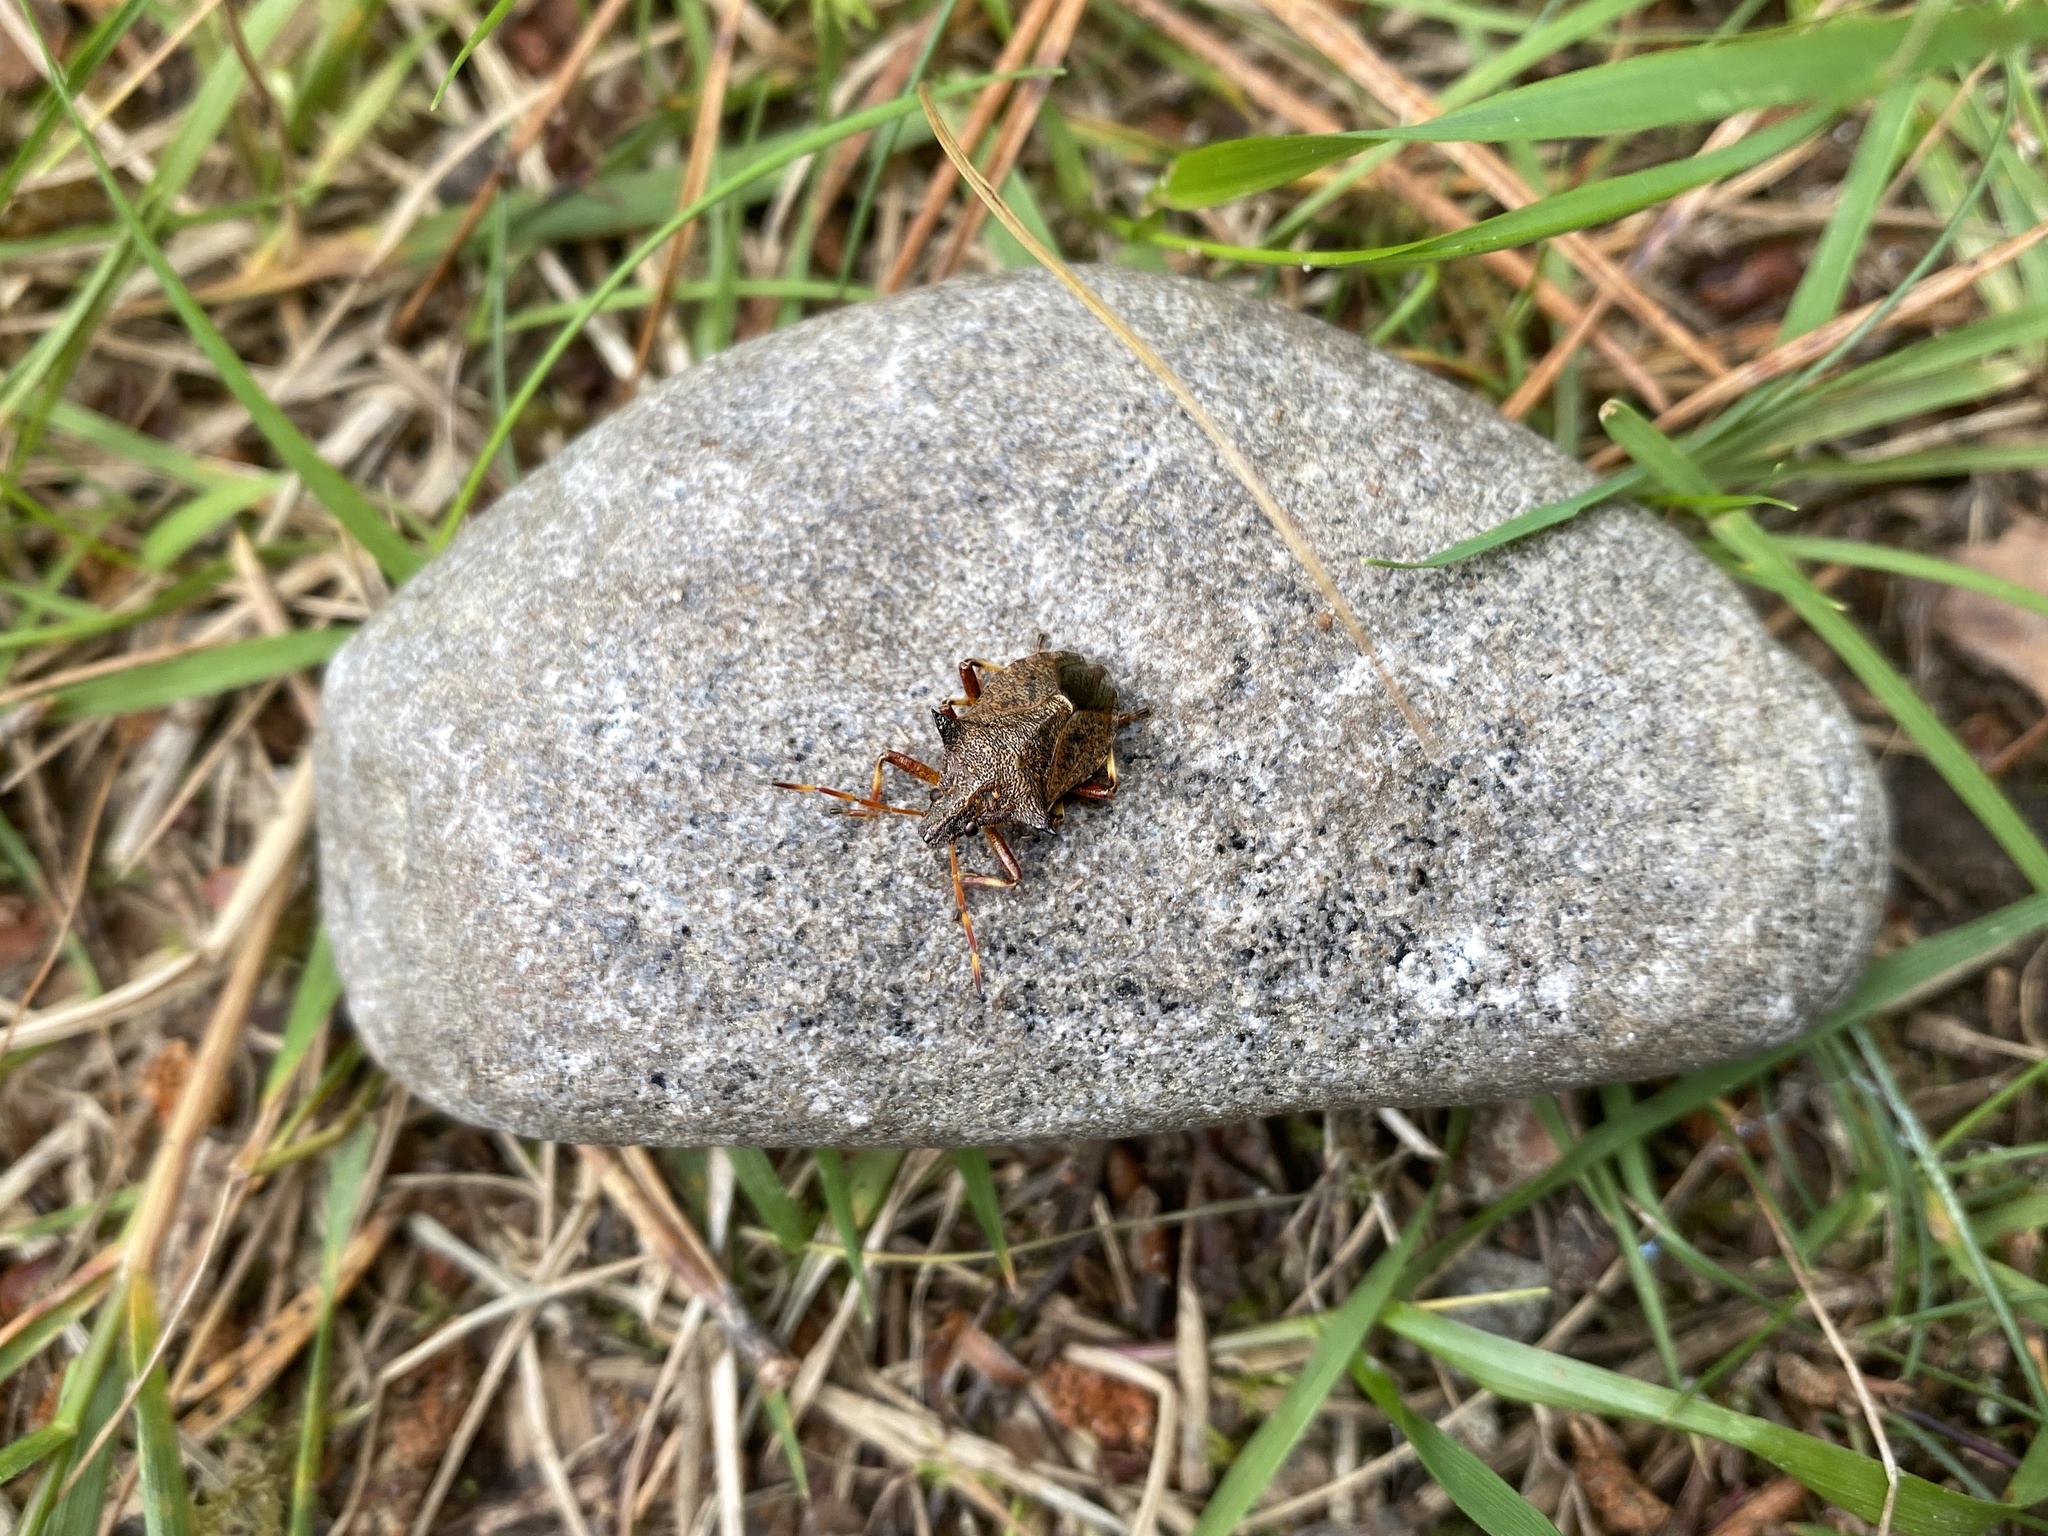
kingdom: Animalia
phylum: Arthropoda
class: Insecta
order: Hemiptera
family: Pentatomidae
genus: Picromerus
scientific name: Picromerus bidens
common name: Spiked shieldbug
